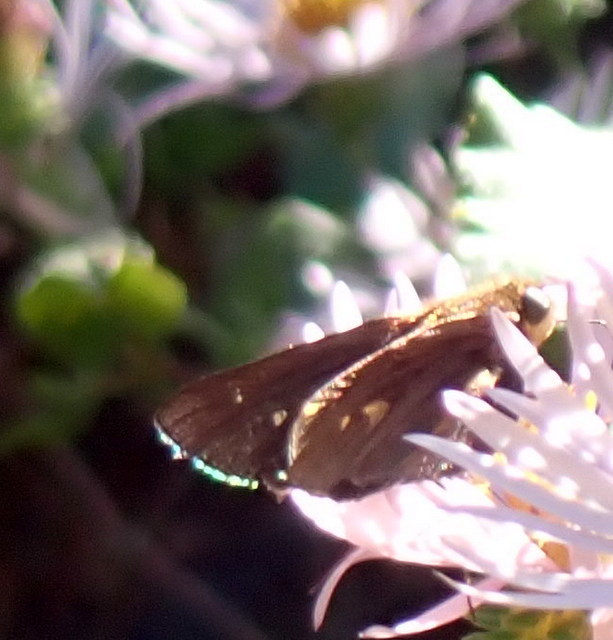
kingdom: Animalia
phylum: Arthropoda
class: Insecta
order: Lepidoptera
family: Hesperiidae
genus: Panoquina
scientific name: Panoquina ocola
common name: Ocola skipper
